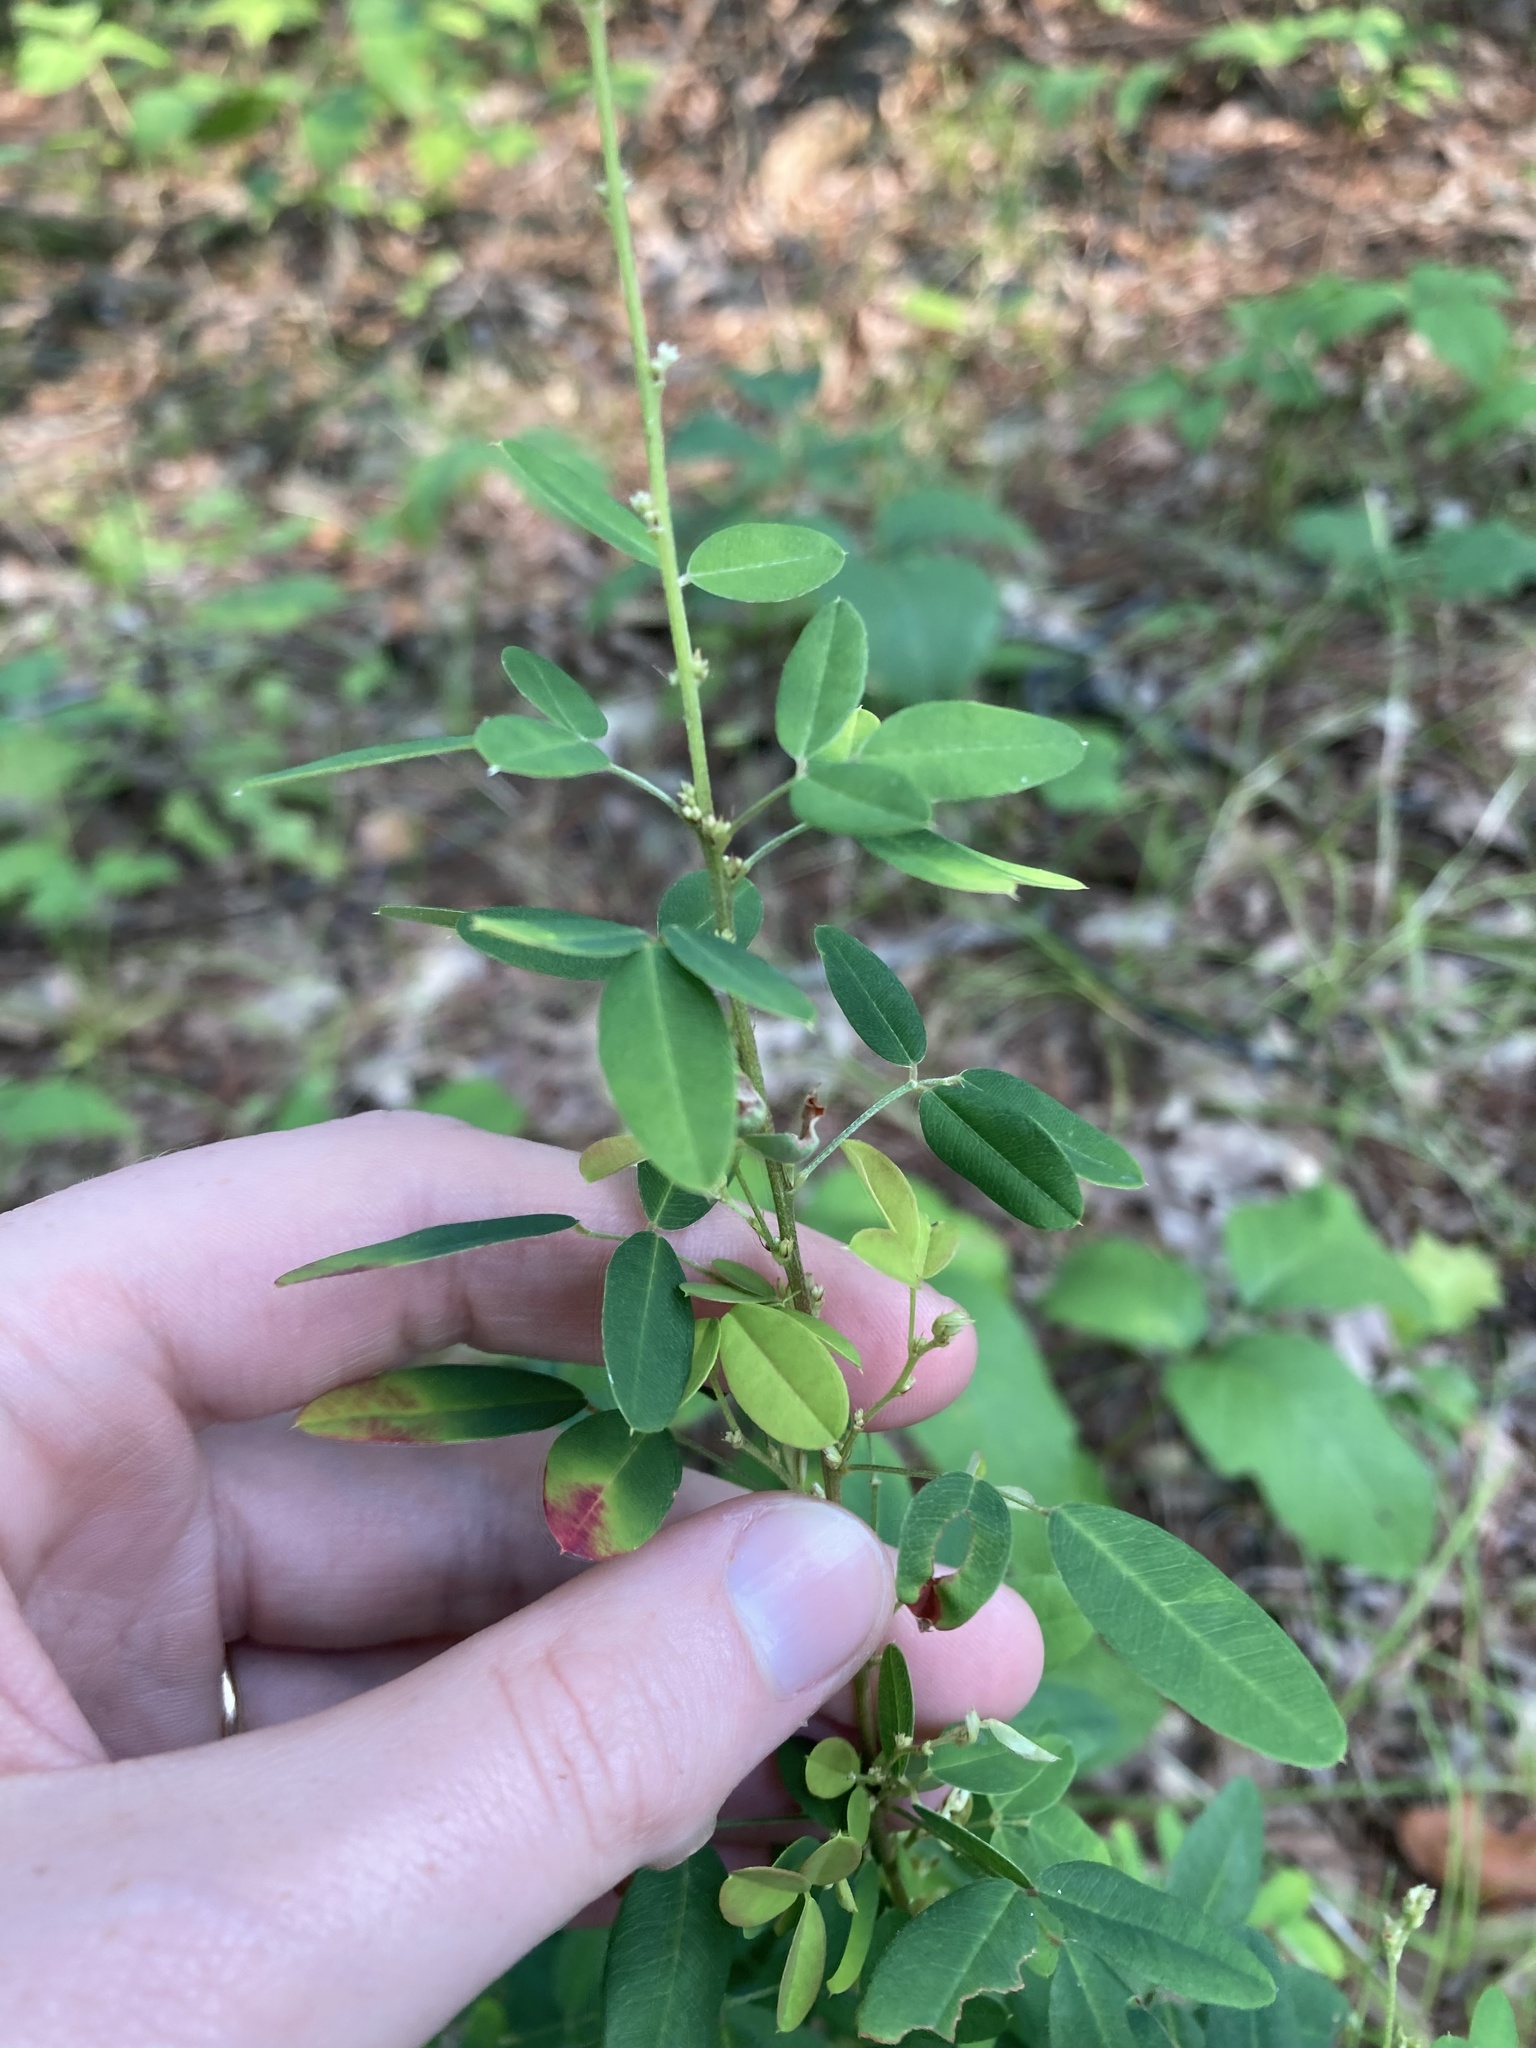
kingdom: Plantae
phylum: Tracheophyta
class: Magnoliopsida
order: Fabales
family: Fabaceae
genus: Lespedeza
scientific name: Lespedeza violacea
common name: Wand bush-clover
